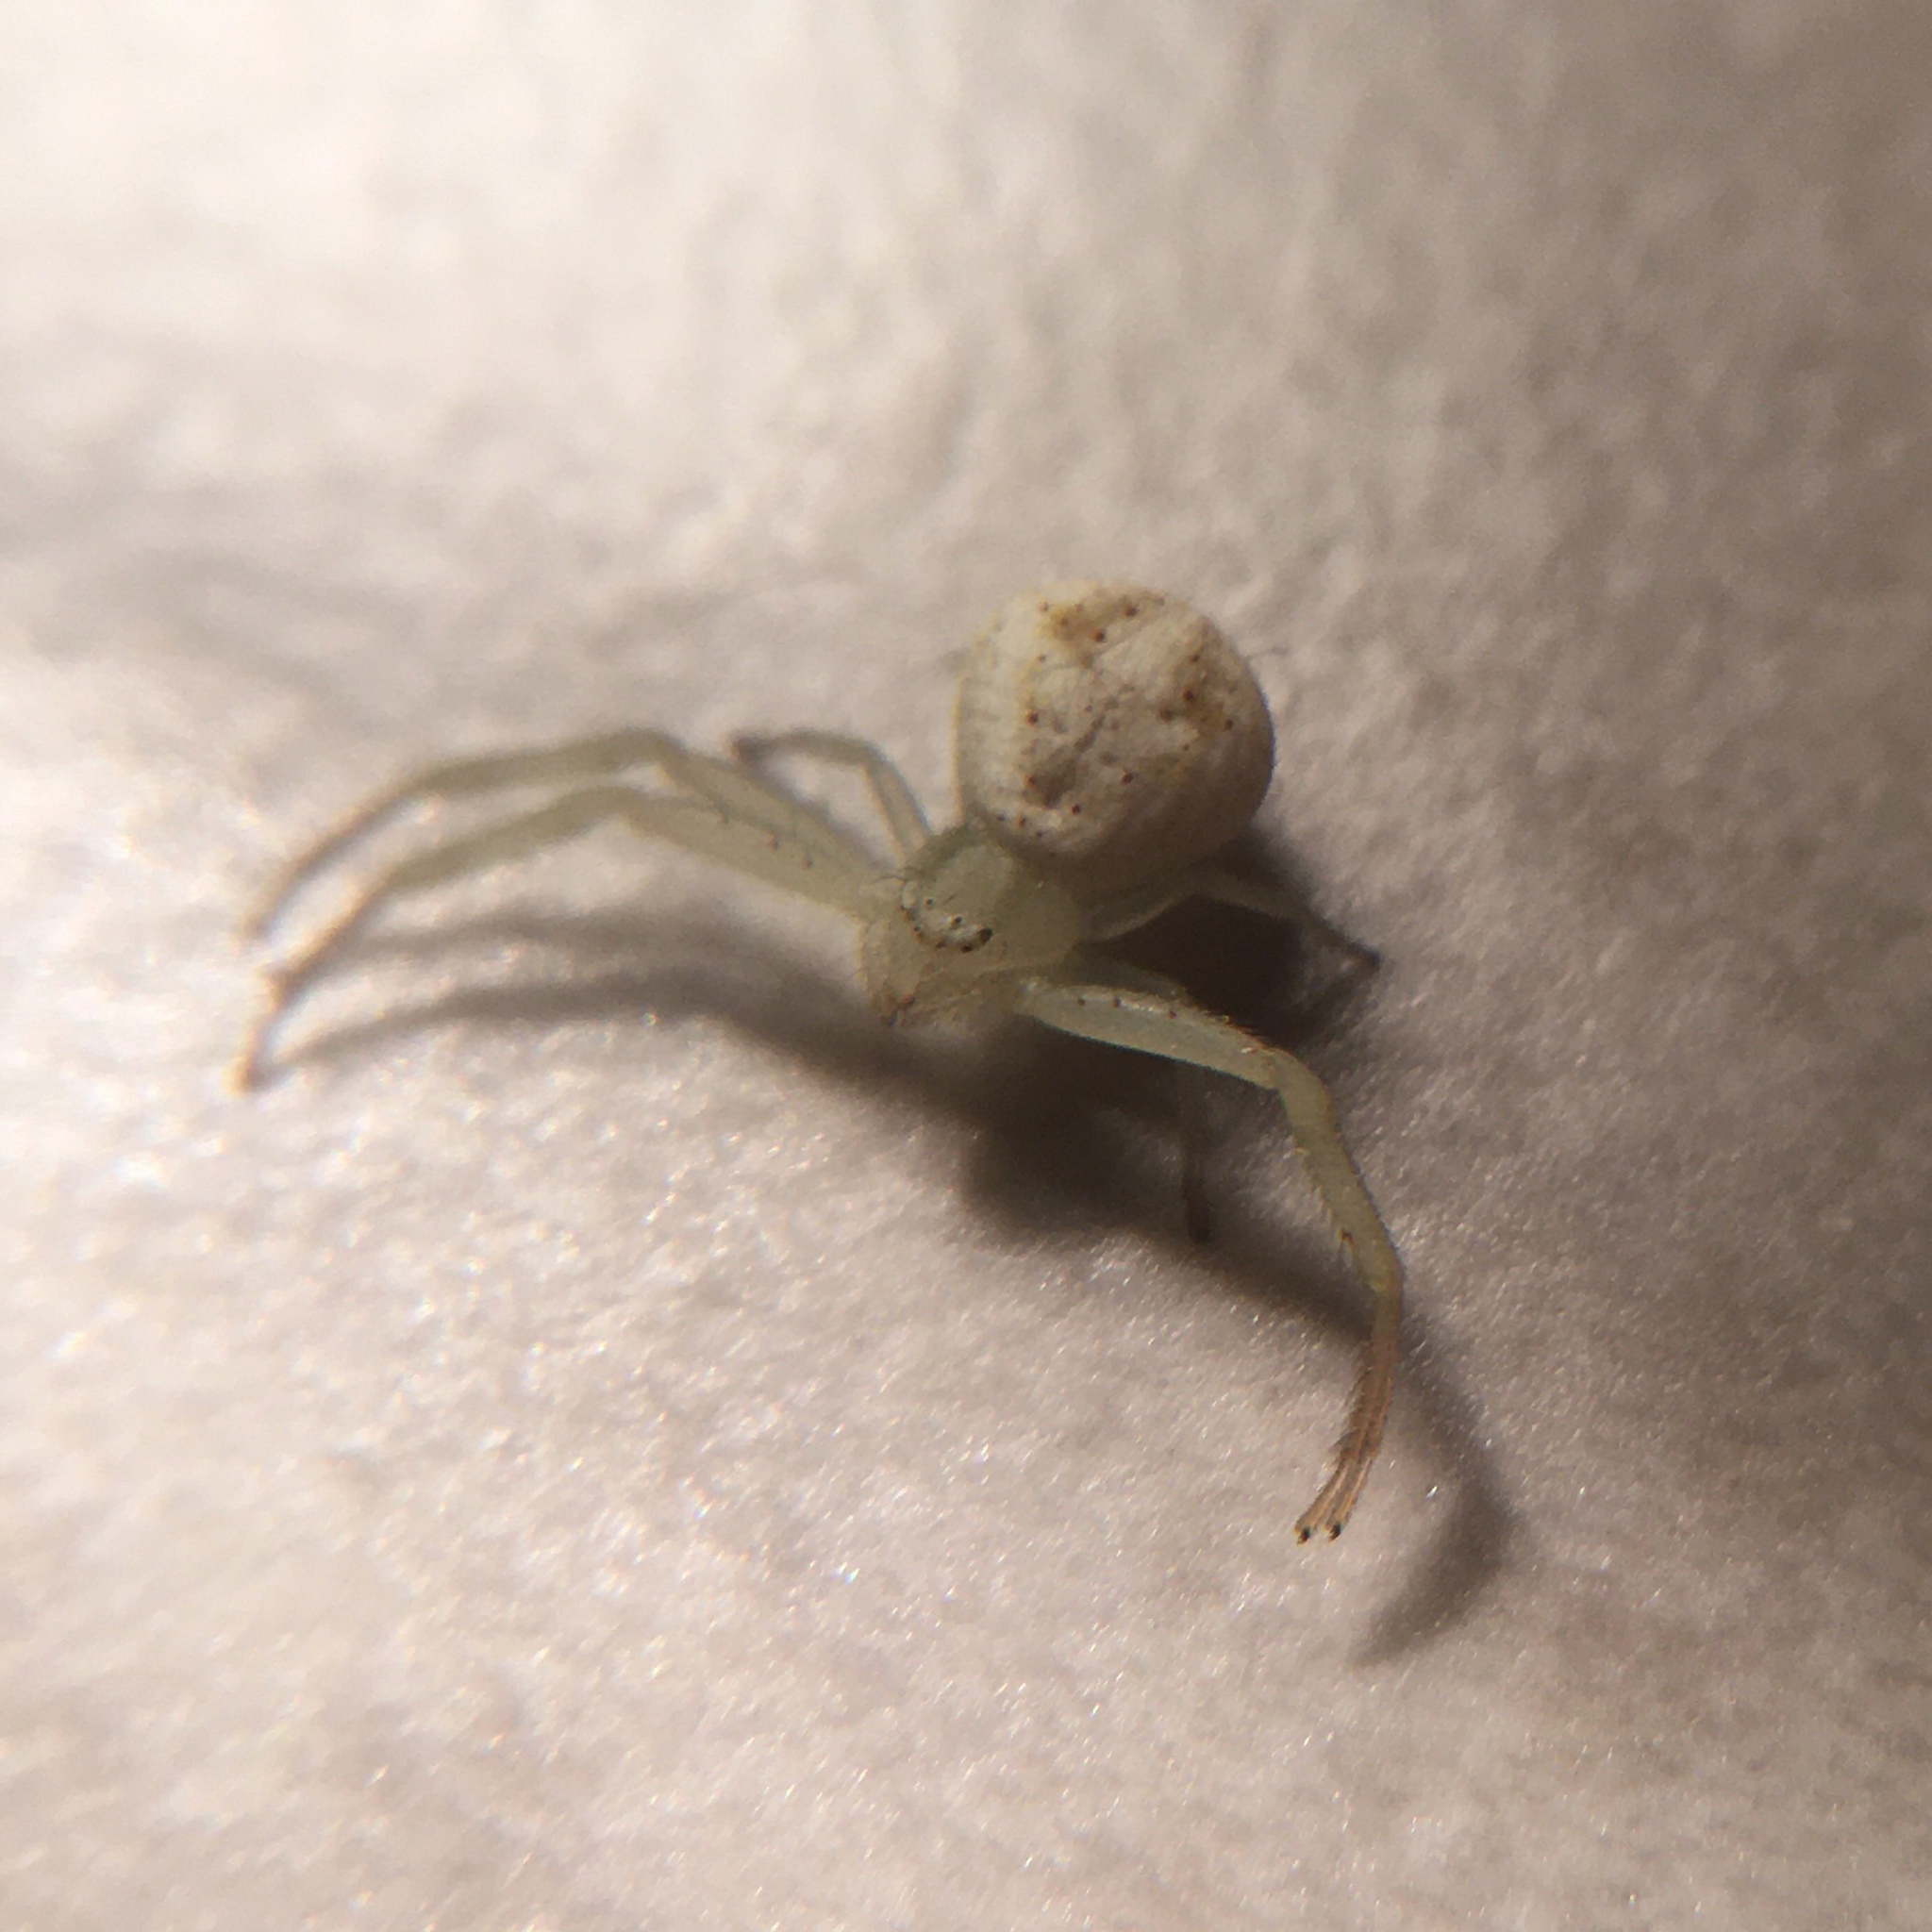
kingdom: Animalia
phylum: Arthropoda
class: Arachnida
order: Araneae
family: Thomisidae
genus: Misumenops
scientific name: Misumenops
